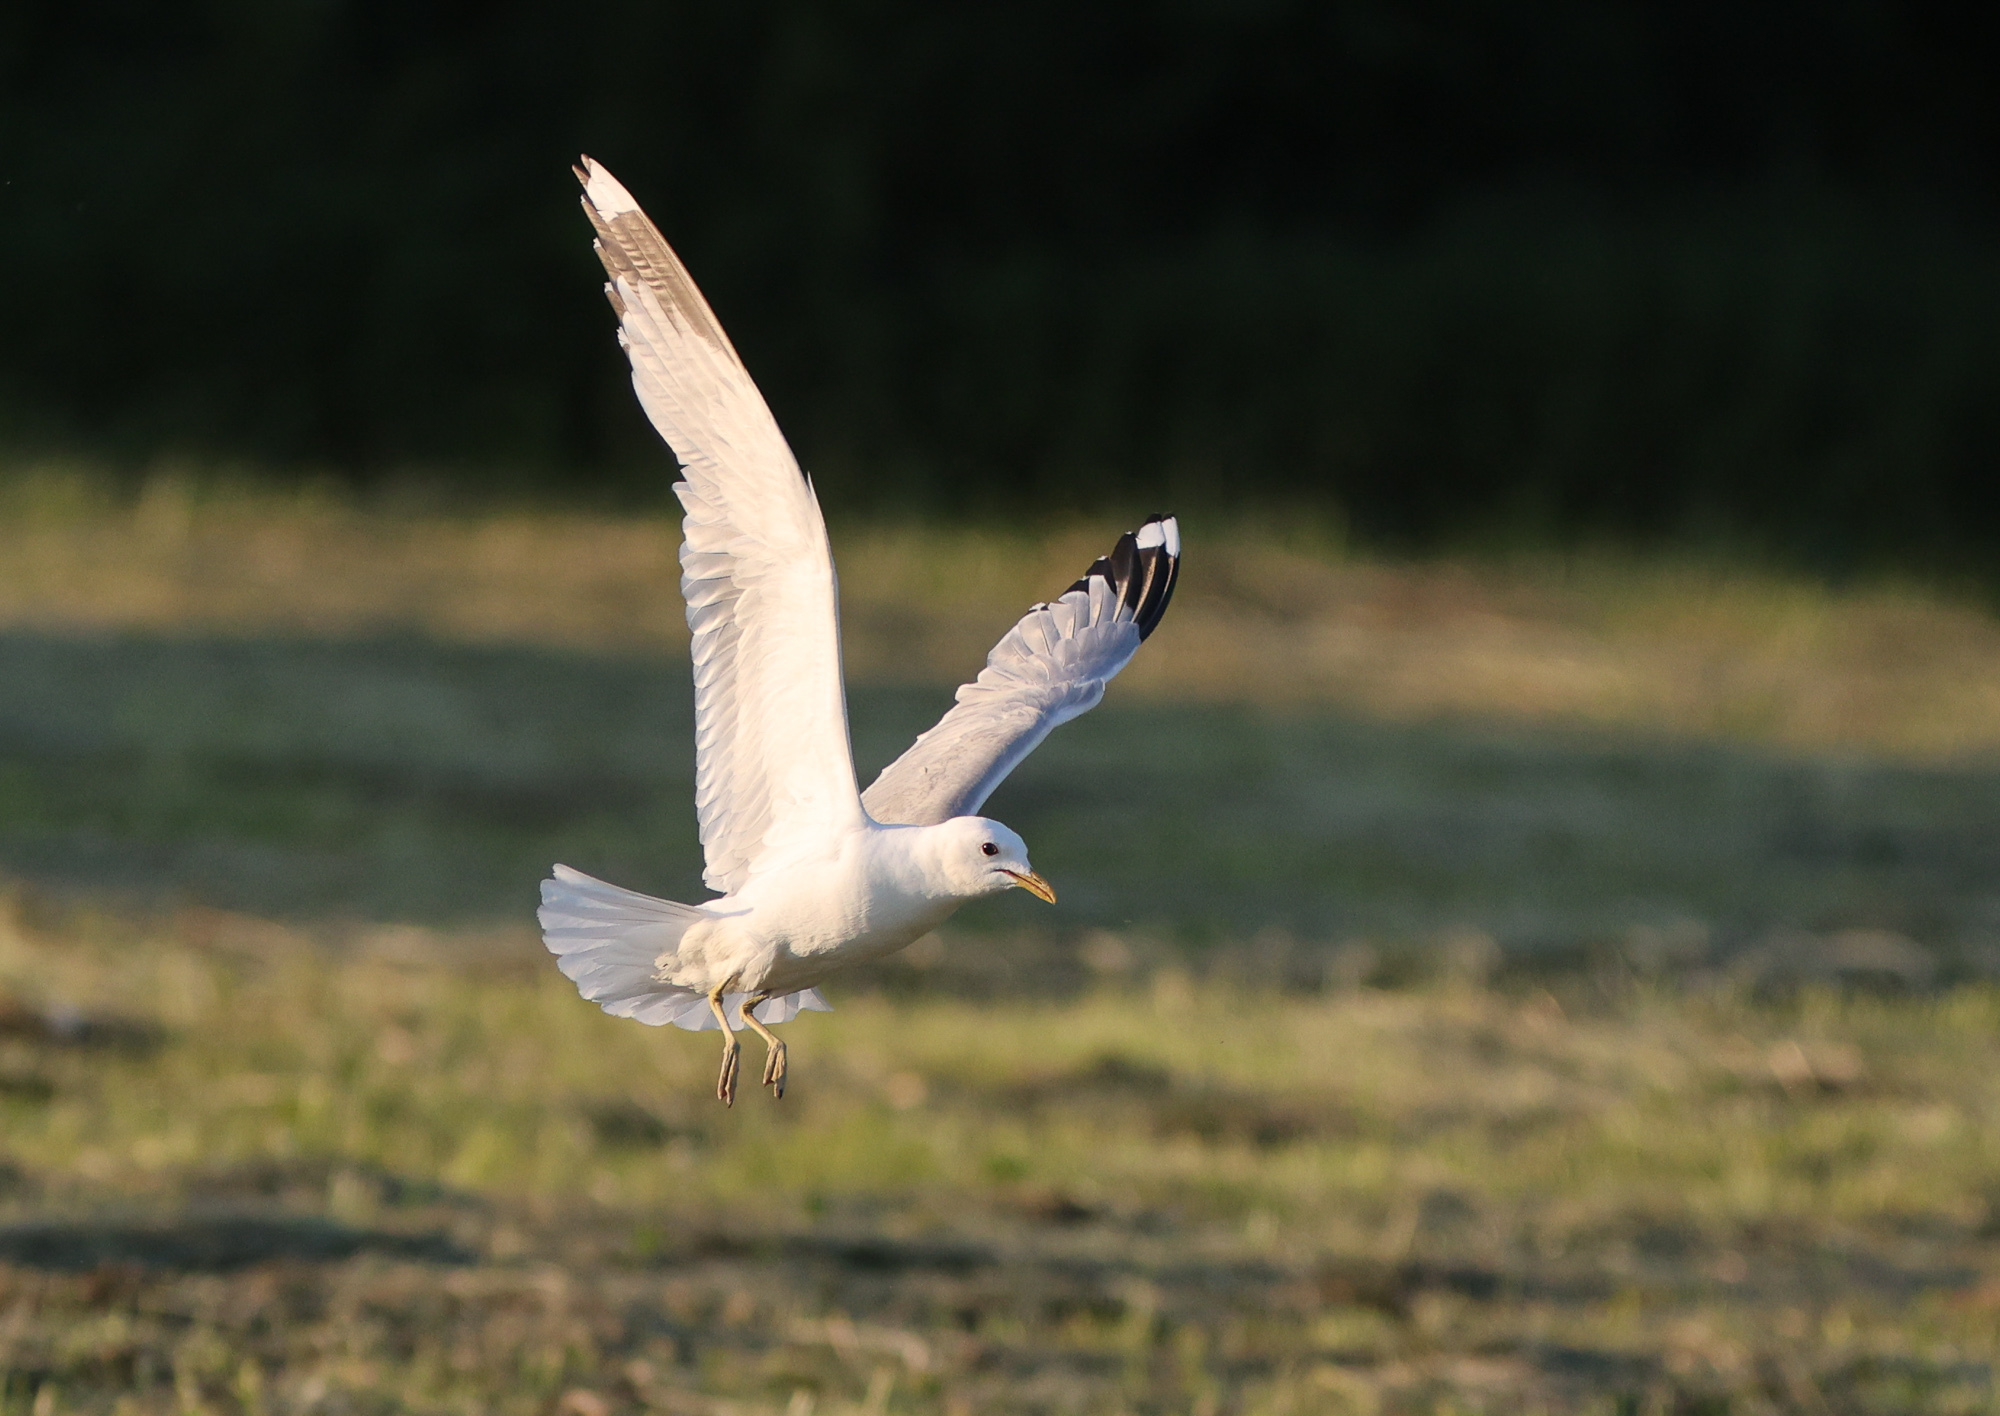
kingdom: Animalia
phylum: Chordata
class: Aves
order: Charadriiformes
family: Laridae
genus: Larus
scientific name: Larus canus
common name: Mew gull
